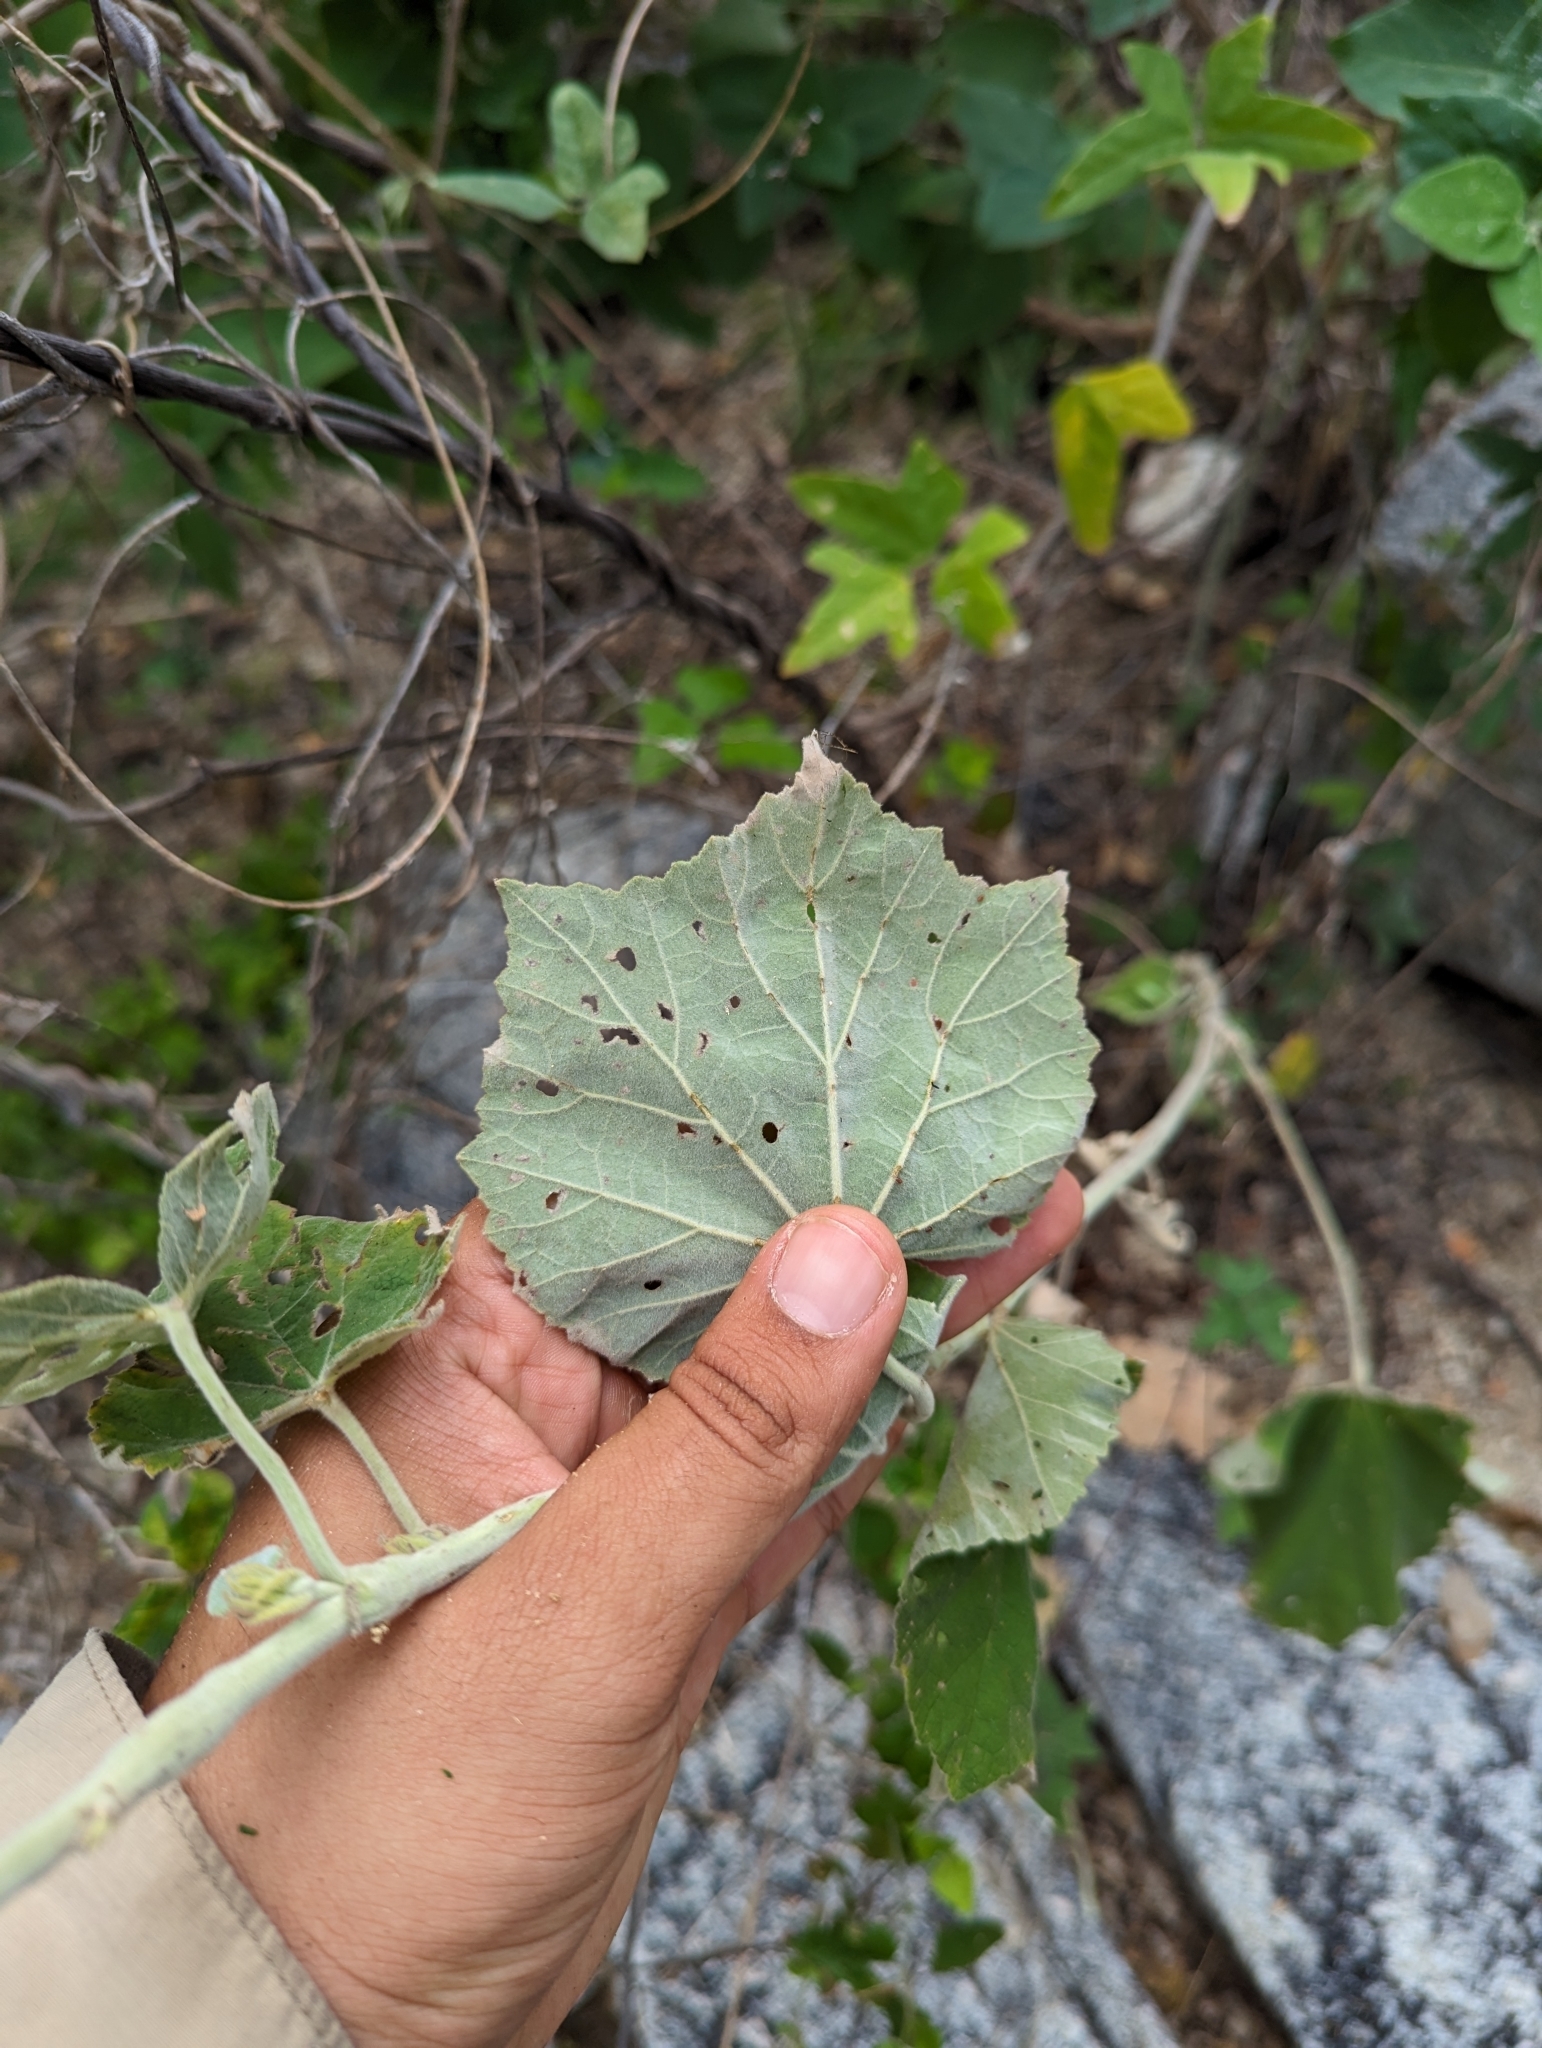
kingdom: Plantae
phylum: Tracheophyta
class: Magnoliopsida
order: Malvales
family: Malvaceae
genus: Abutilon
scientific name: Abutilon xanti
